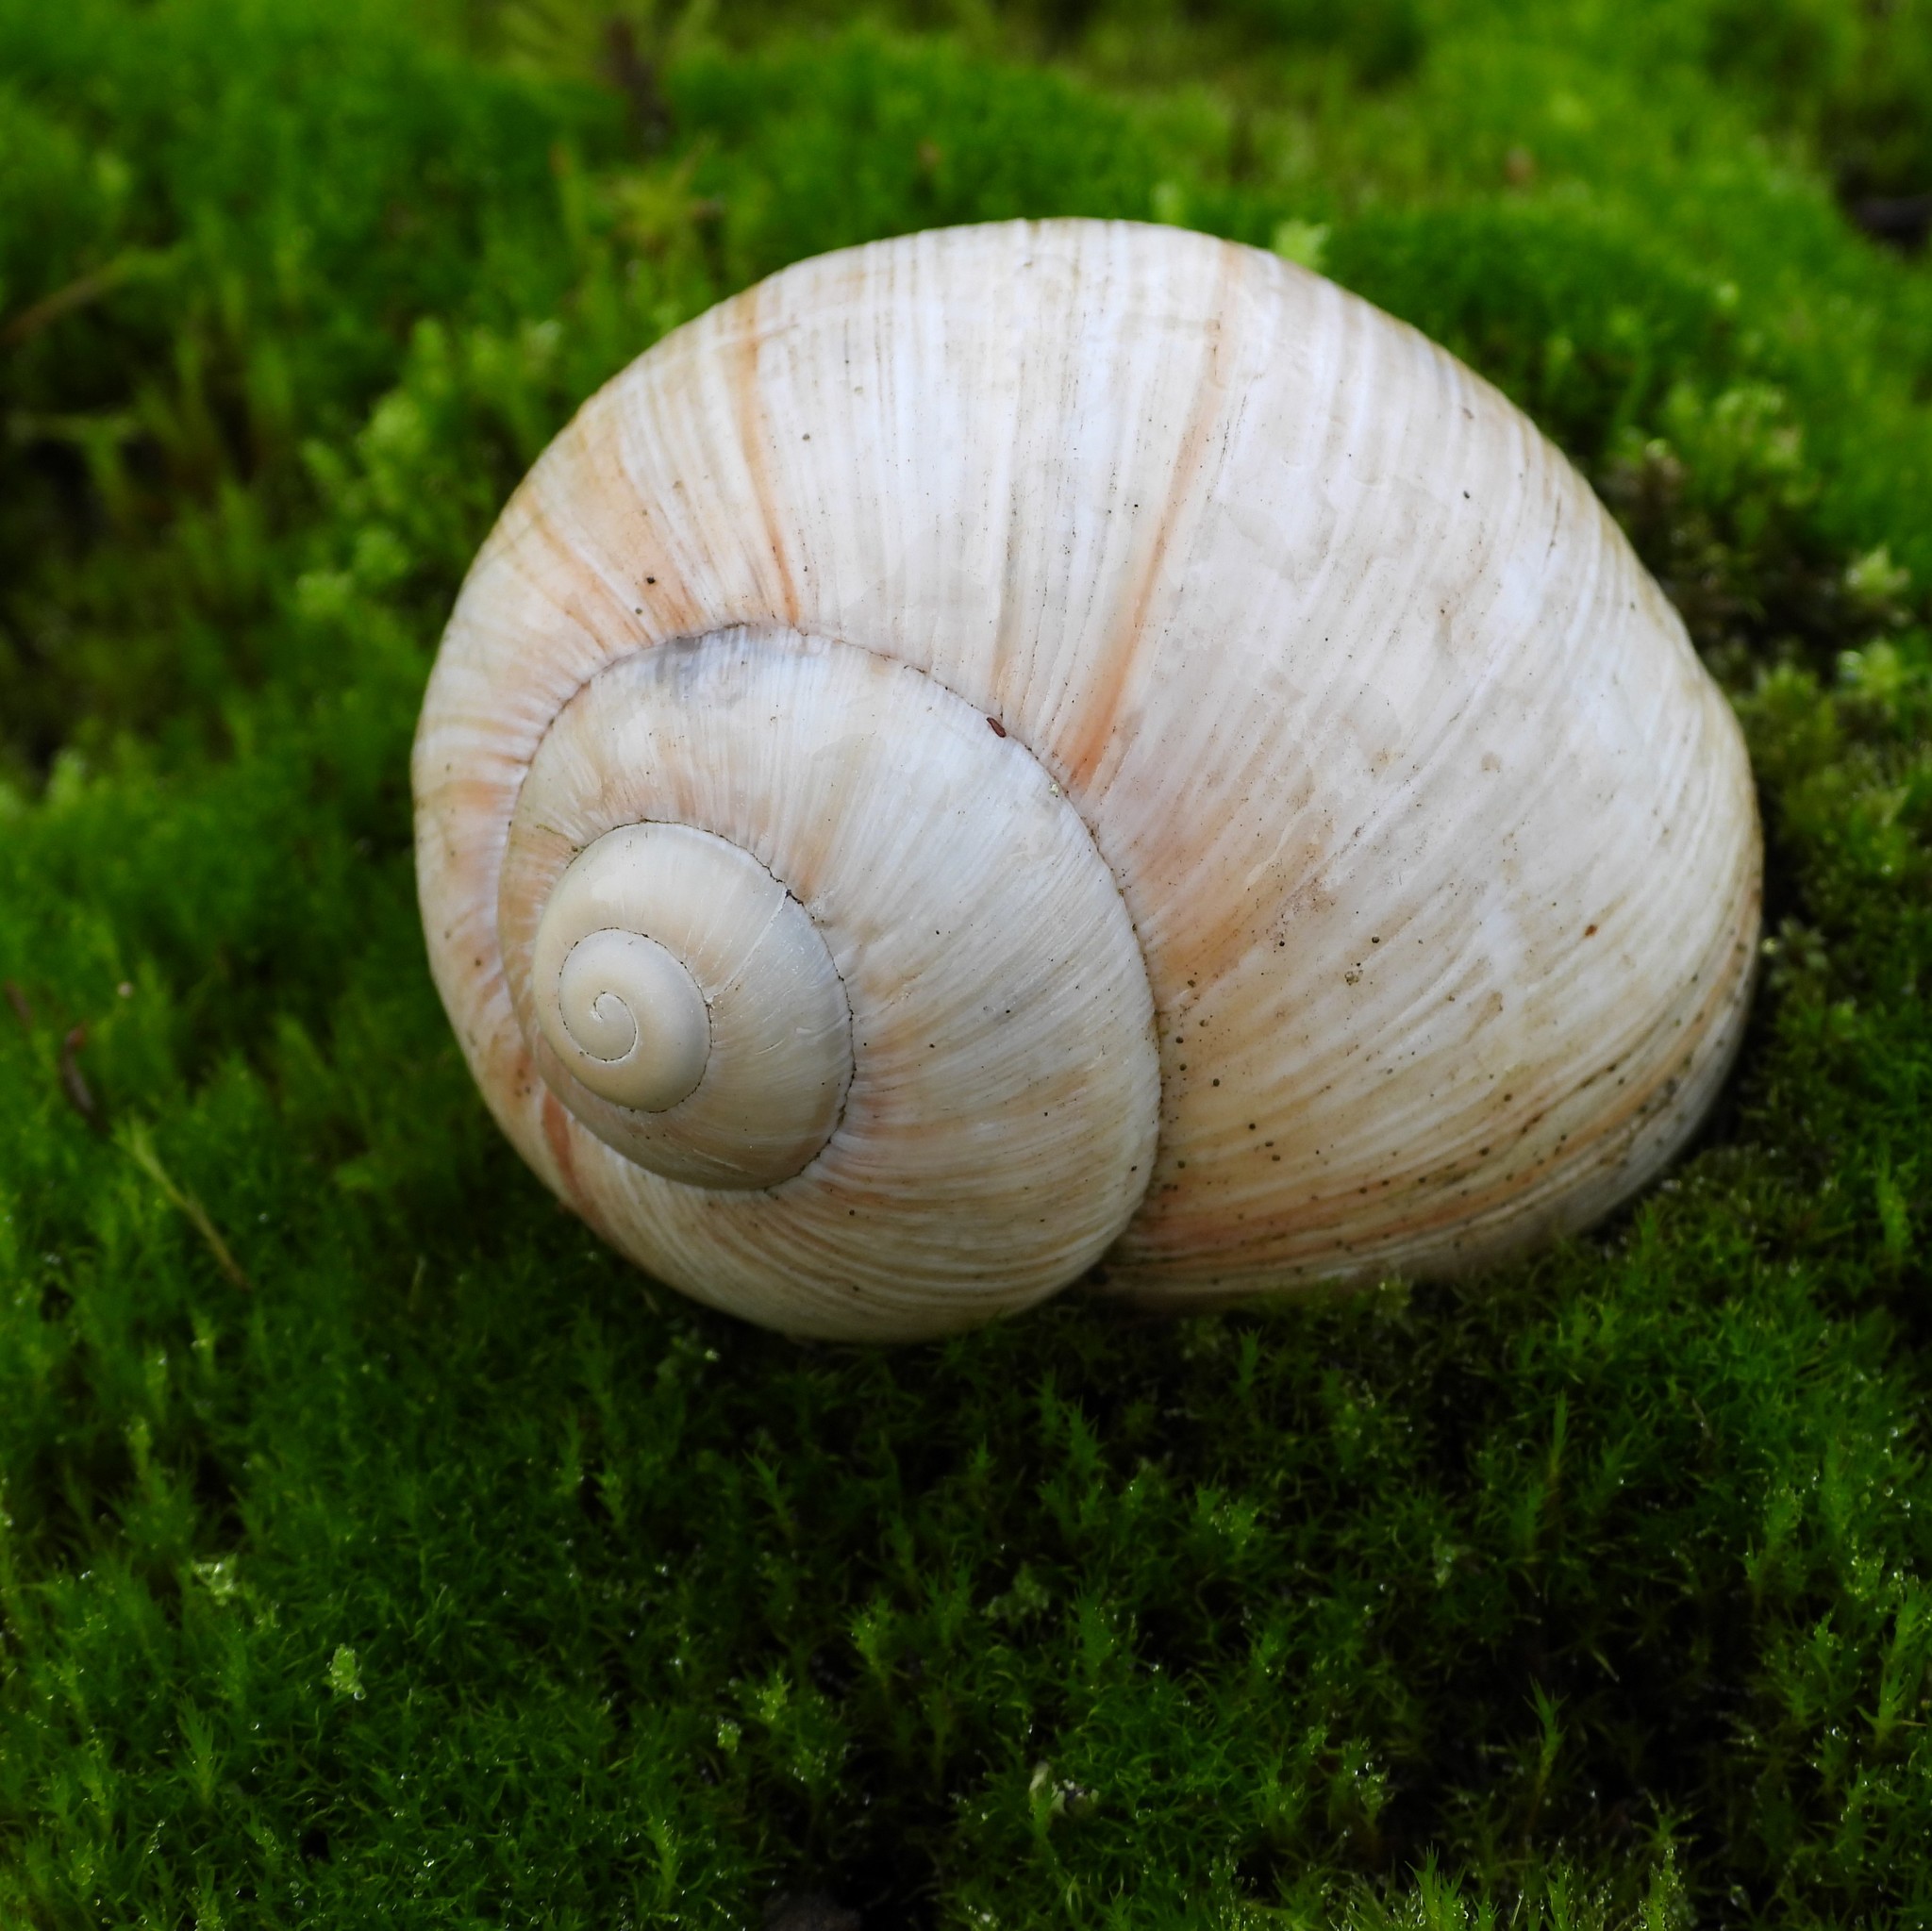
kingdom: Animalia
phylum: Mollusca
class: Gastropoda
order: Stylommatophora
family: Helicidae
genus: Helix
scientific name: Helix pomatia
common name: Roman snail
